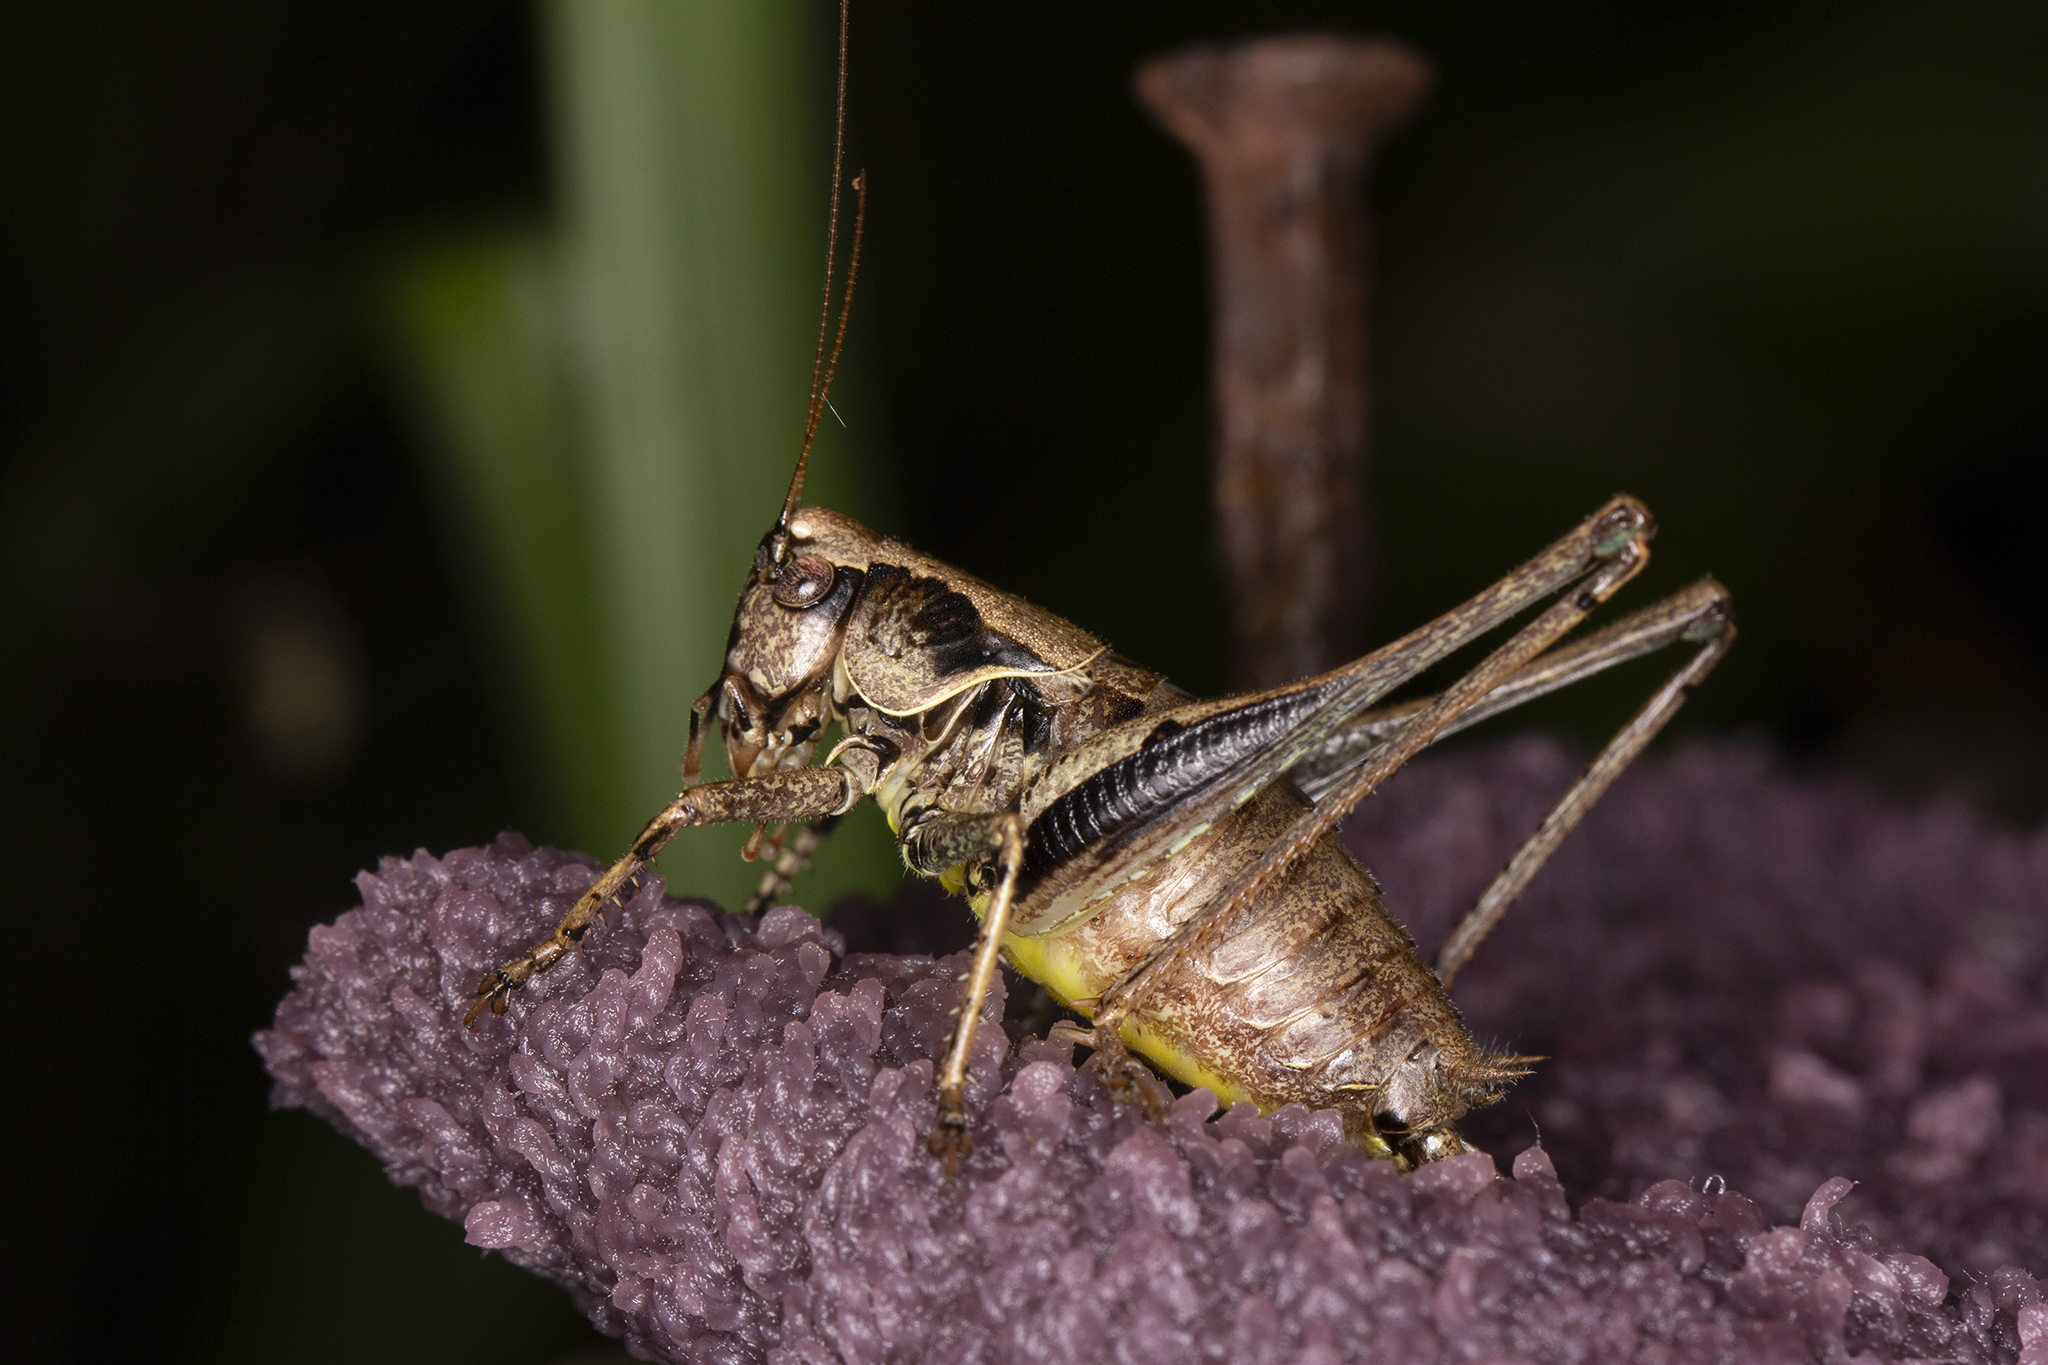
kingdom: Animalia
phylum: Arthropoda
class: Insecta
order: Orthoptera
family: Tettigoniidae
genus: Pholidoptera
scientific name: Pholidoptera griseoaptera
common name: Dark bush-cricket
